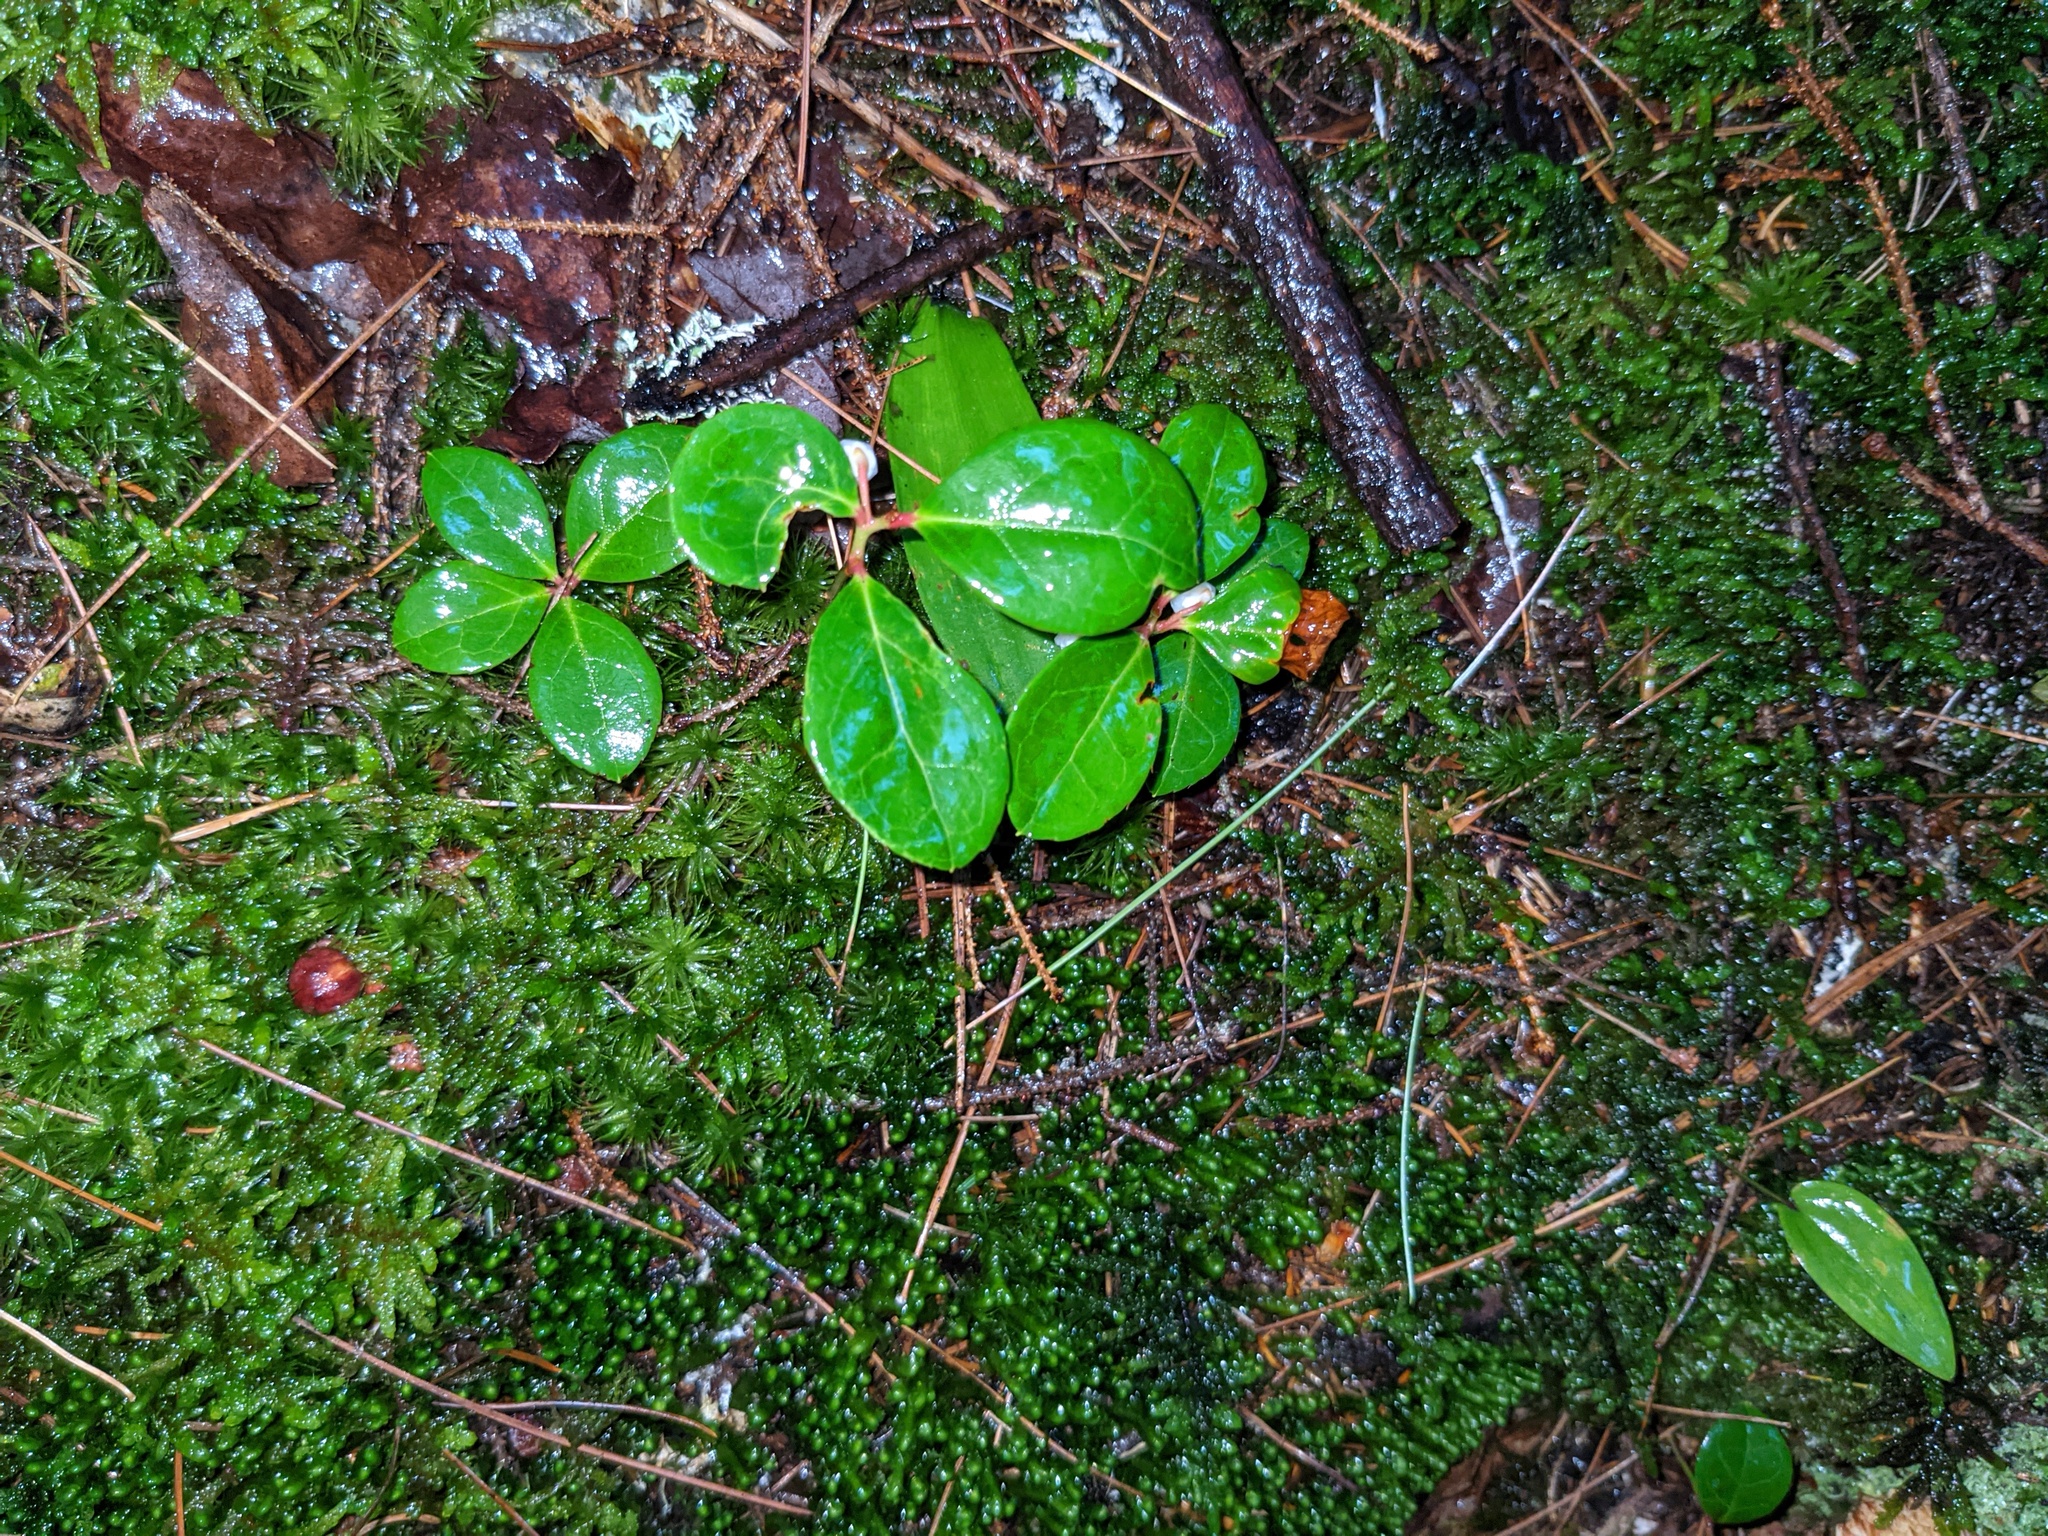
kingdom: Plantae
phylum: Tracheophyta
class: Magnoliopsida
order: Ericales
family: Ericaceae
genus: Gaultheria
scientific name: Gaultheria procumbens
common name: Checkerberry
